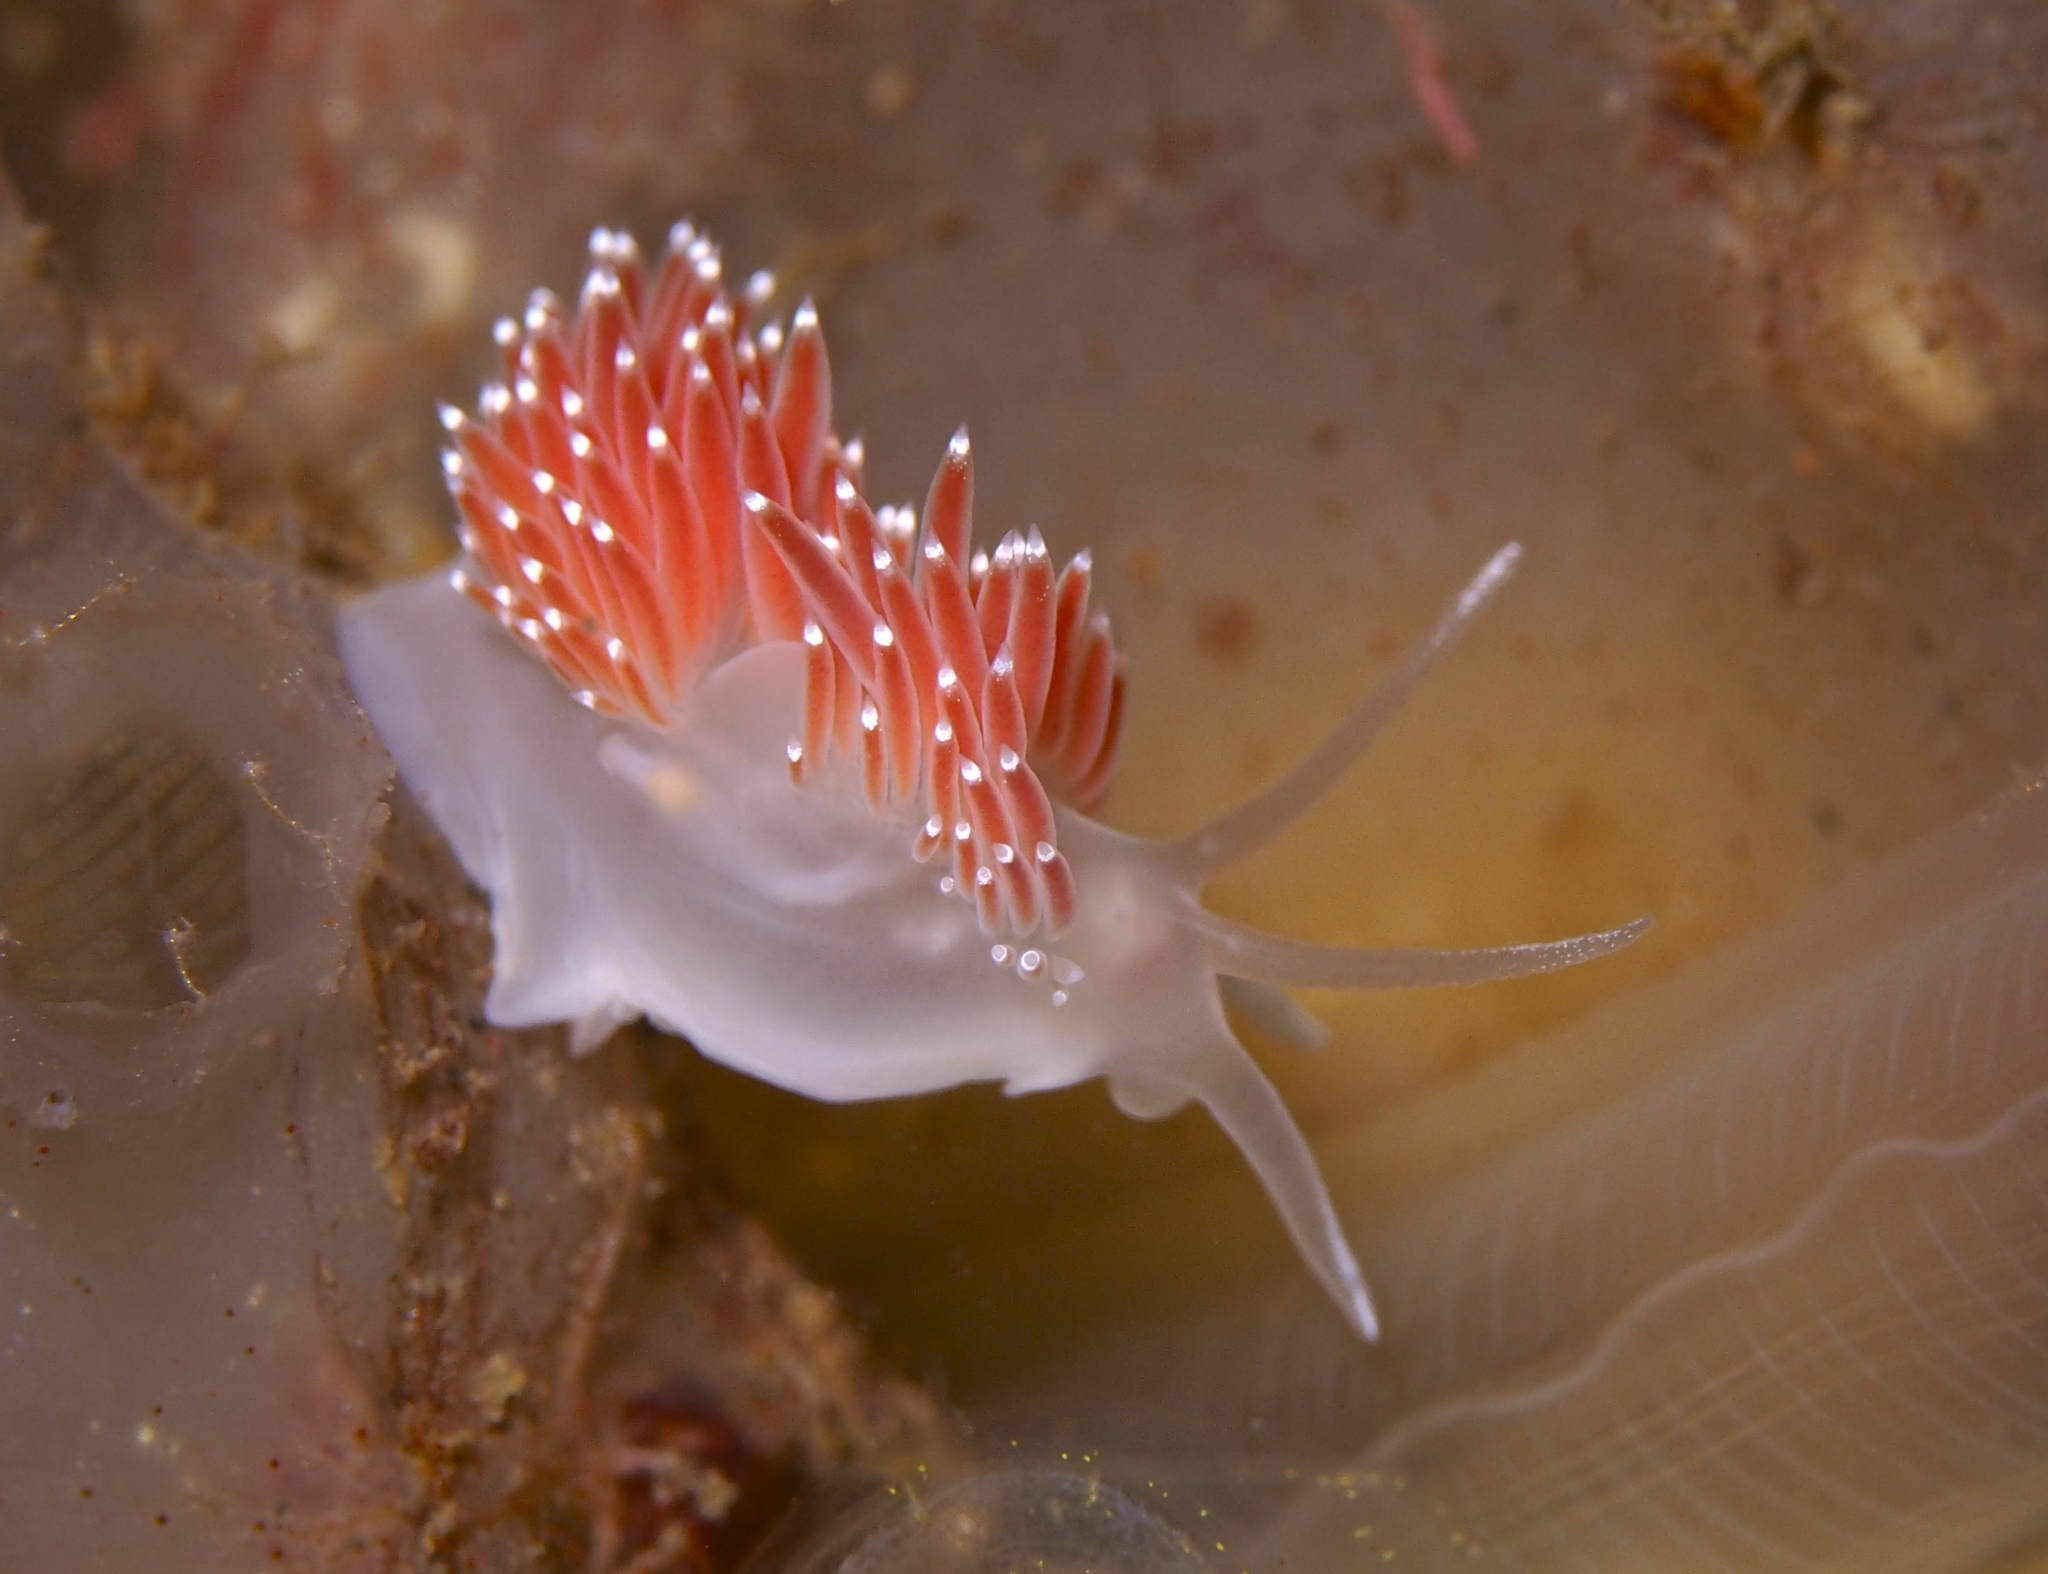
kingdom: Animalia
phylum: Mollusca
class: Gastropoda
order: Nudibranchia
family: Coryphellidae
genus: Coryphella
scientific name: Coryphella verrucosa
